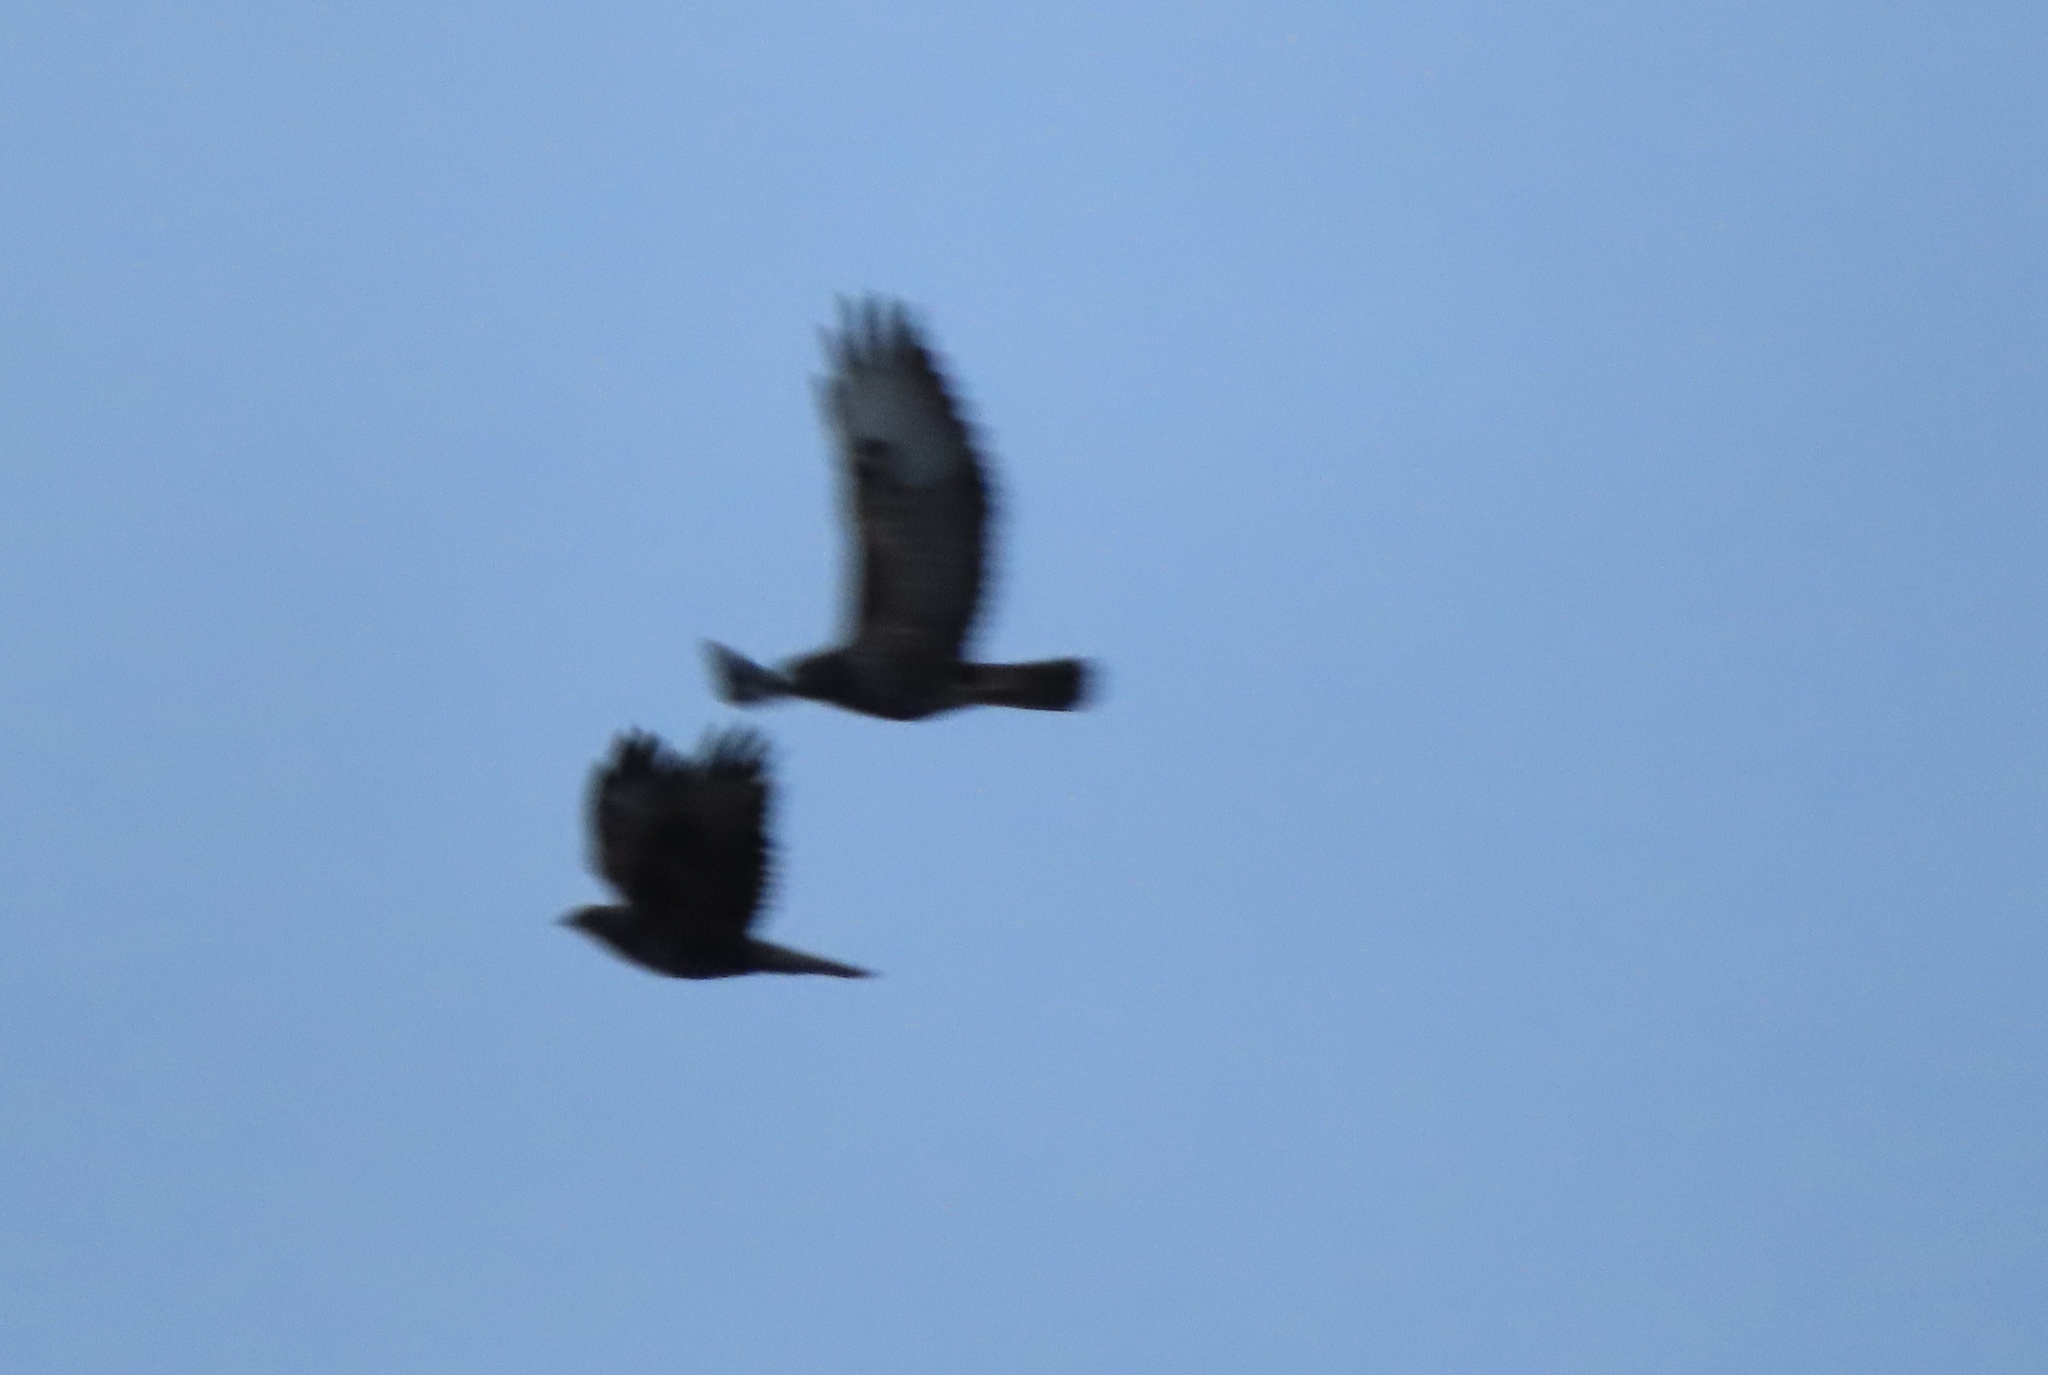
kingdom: Animalia
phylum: Chordata
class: Aves
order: Accipitriformes
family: Accipitridae
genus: Buteo
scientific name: Buteo buteo
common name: Common buzzard
